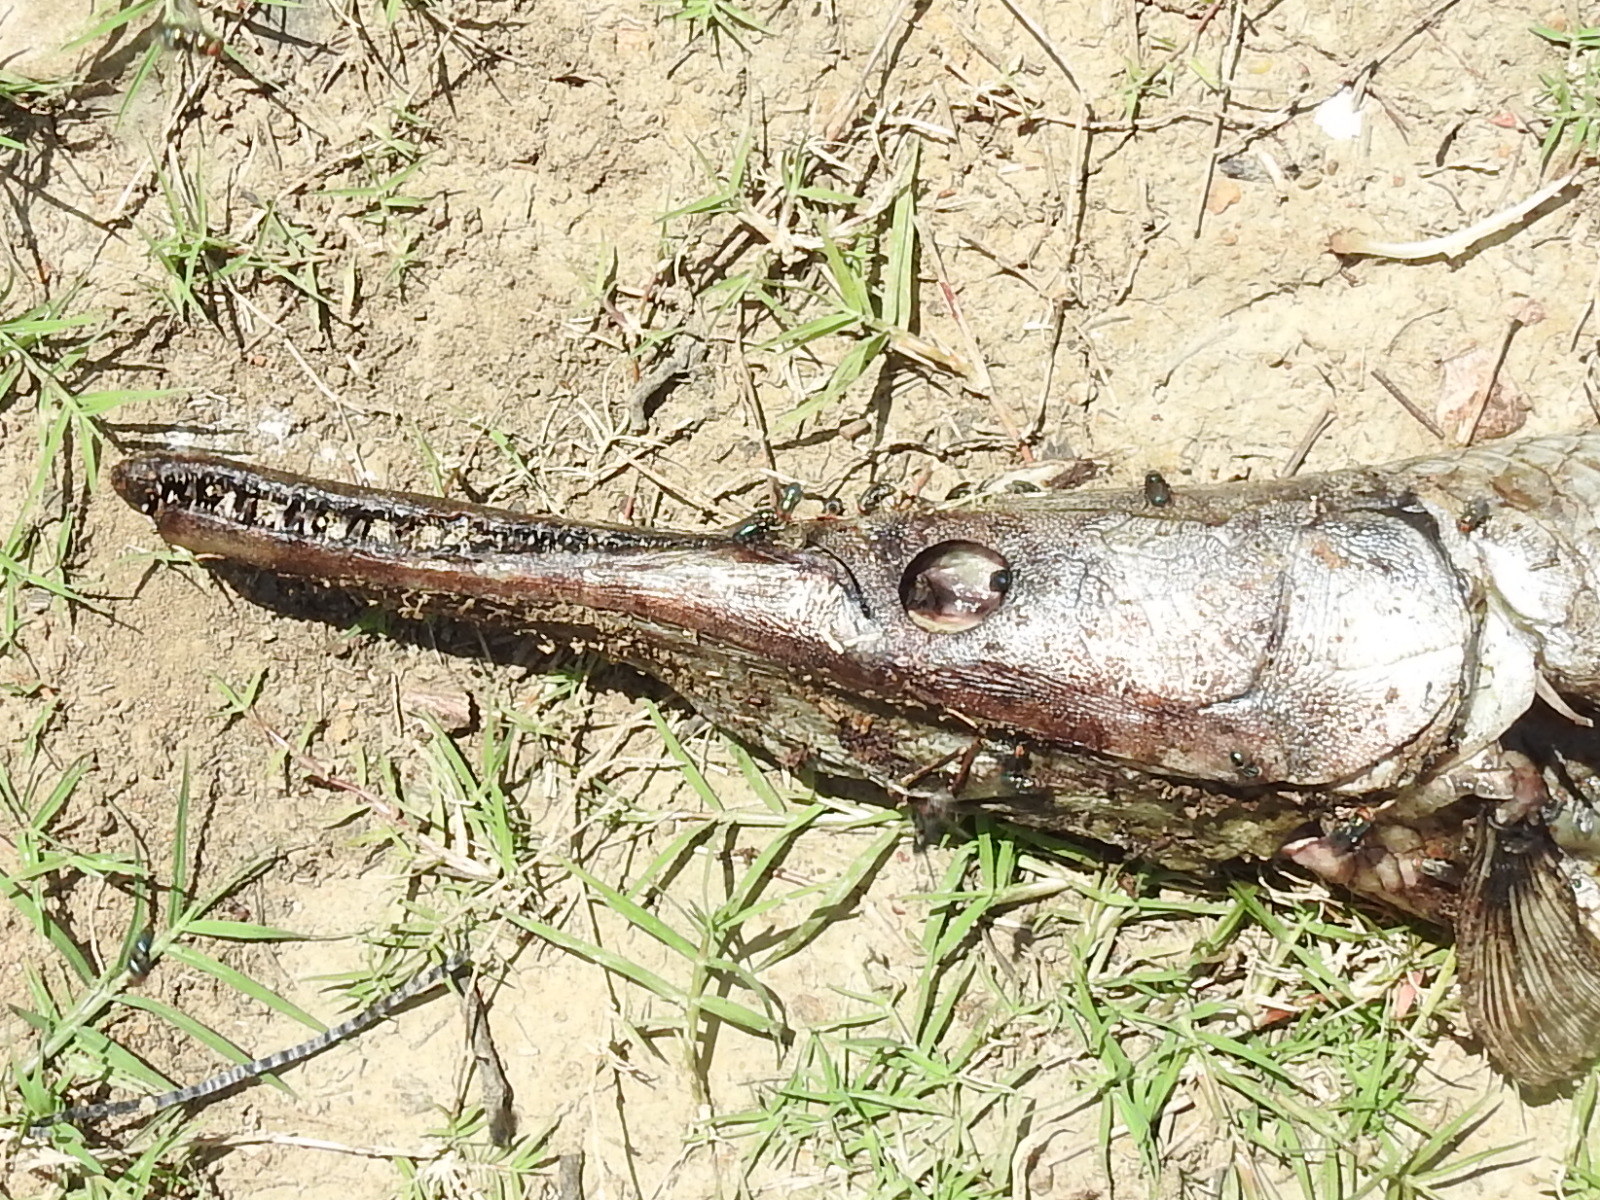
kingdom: Animalia
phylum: Chordata
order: Lepisosteiformes
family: Lepisosteidae
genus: Lepisosteus
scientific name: Lepisosteus oculatus
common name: Spotted gar
